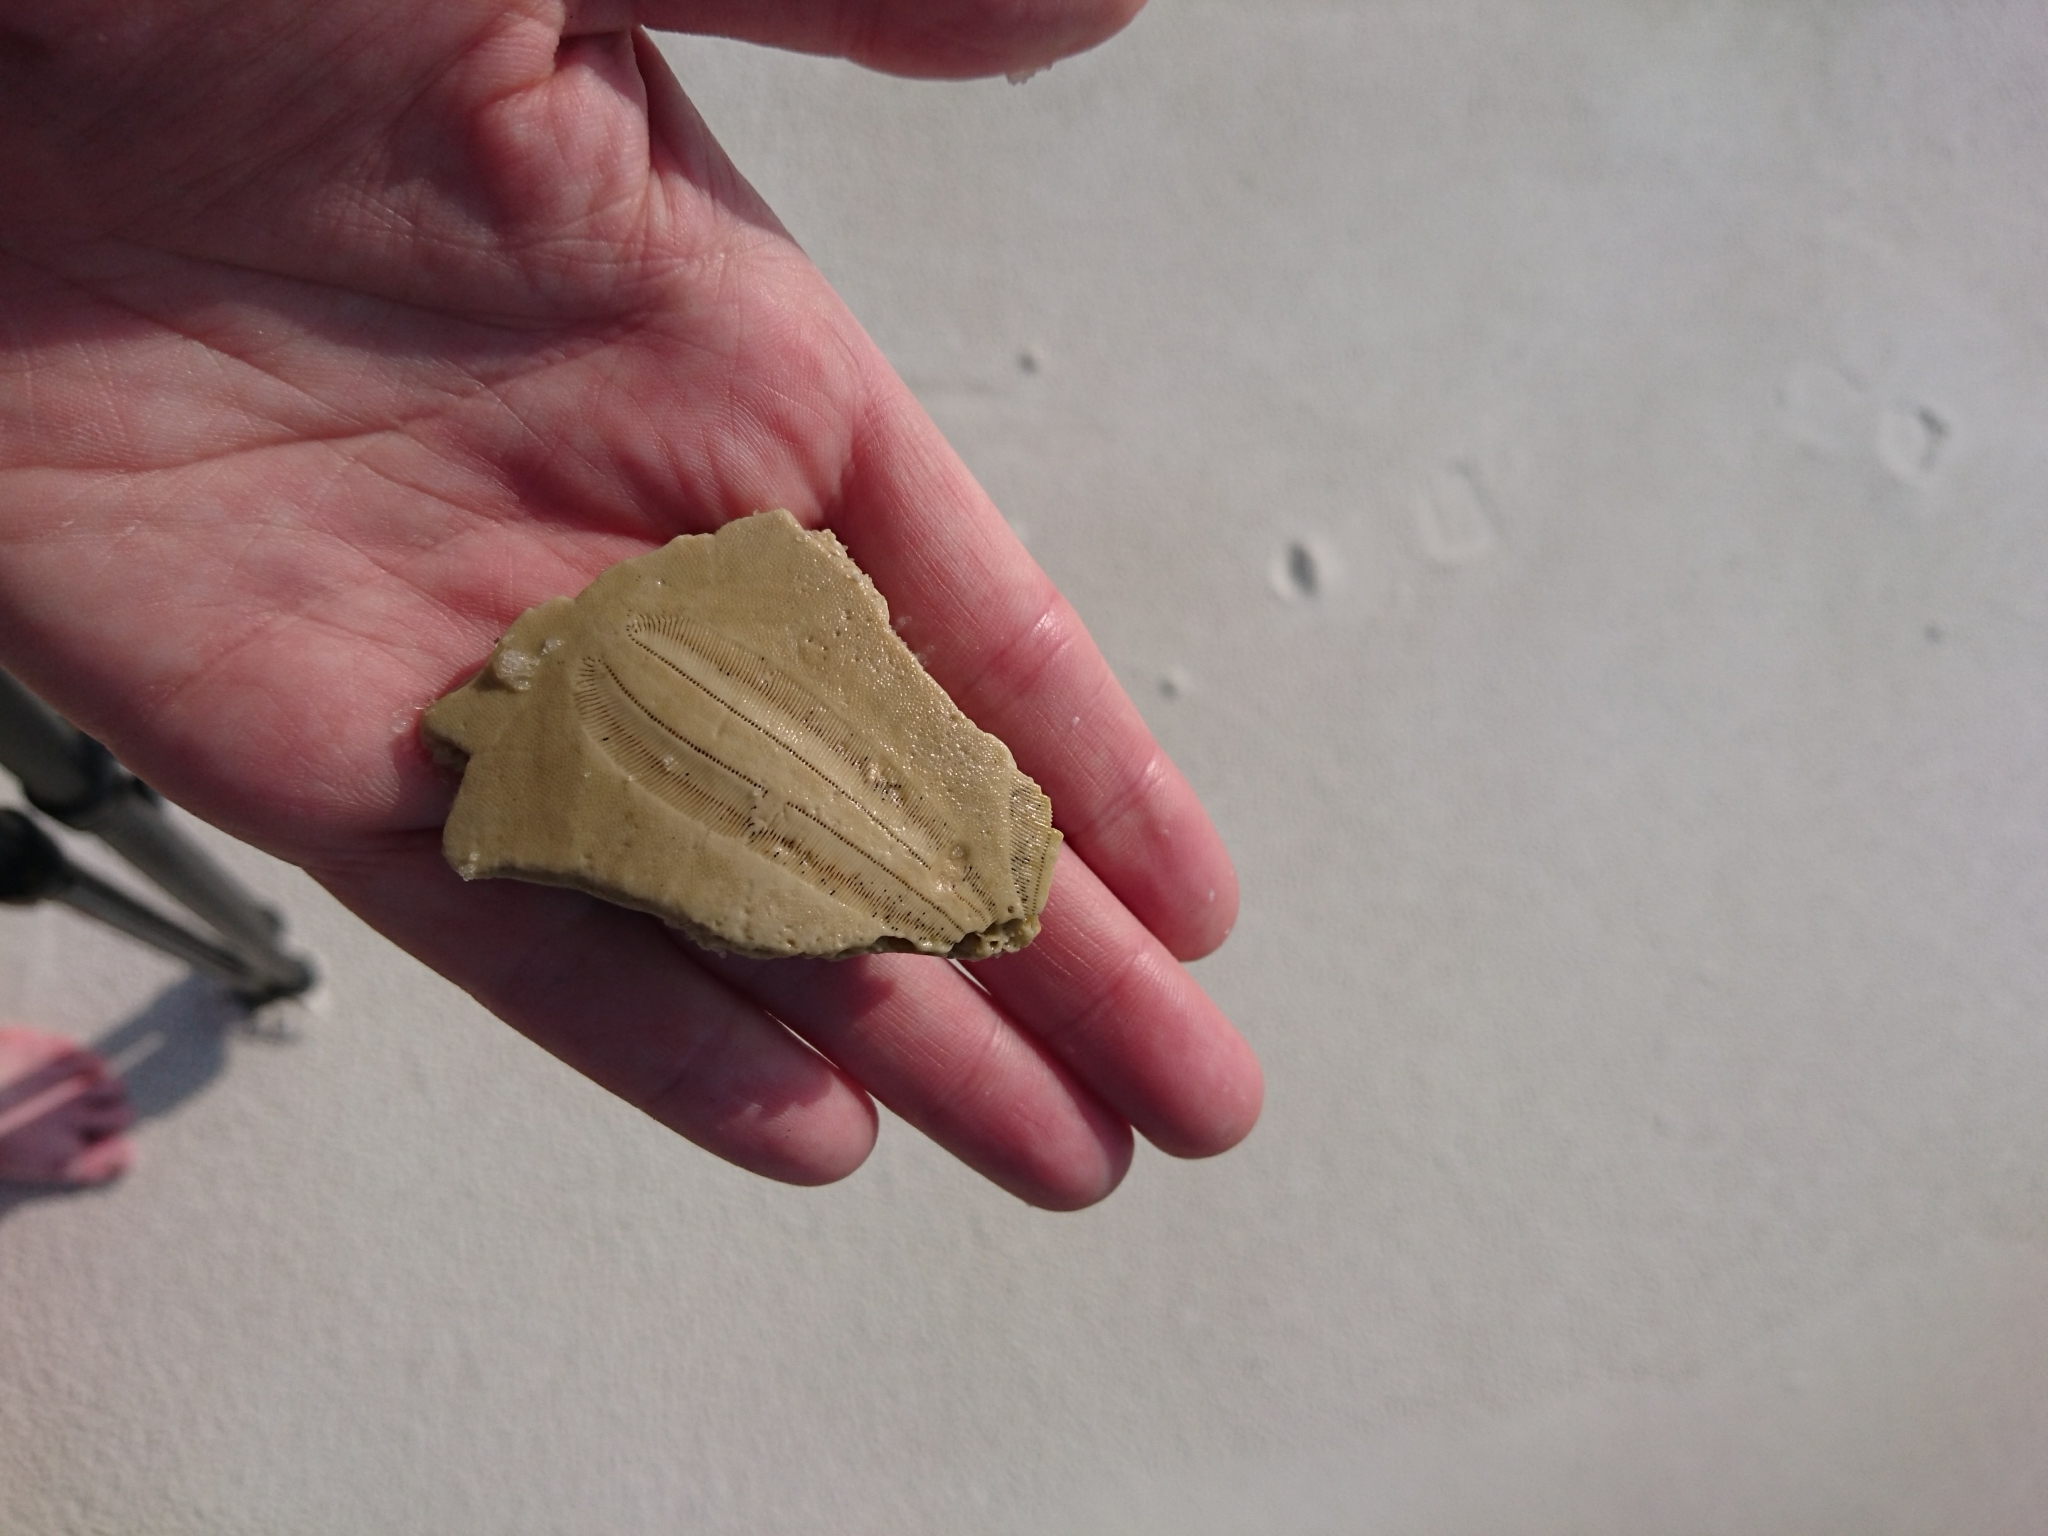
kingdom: Animalia
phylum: Echinodermata
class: Echinoidea
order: Echinolampadacea
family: Mellitidae
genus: Mellita
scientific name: Mellita quinquiesperforata
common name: Sand dollar
